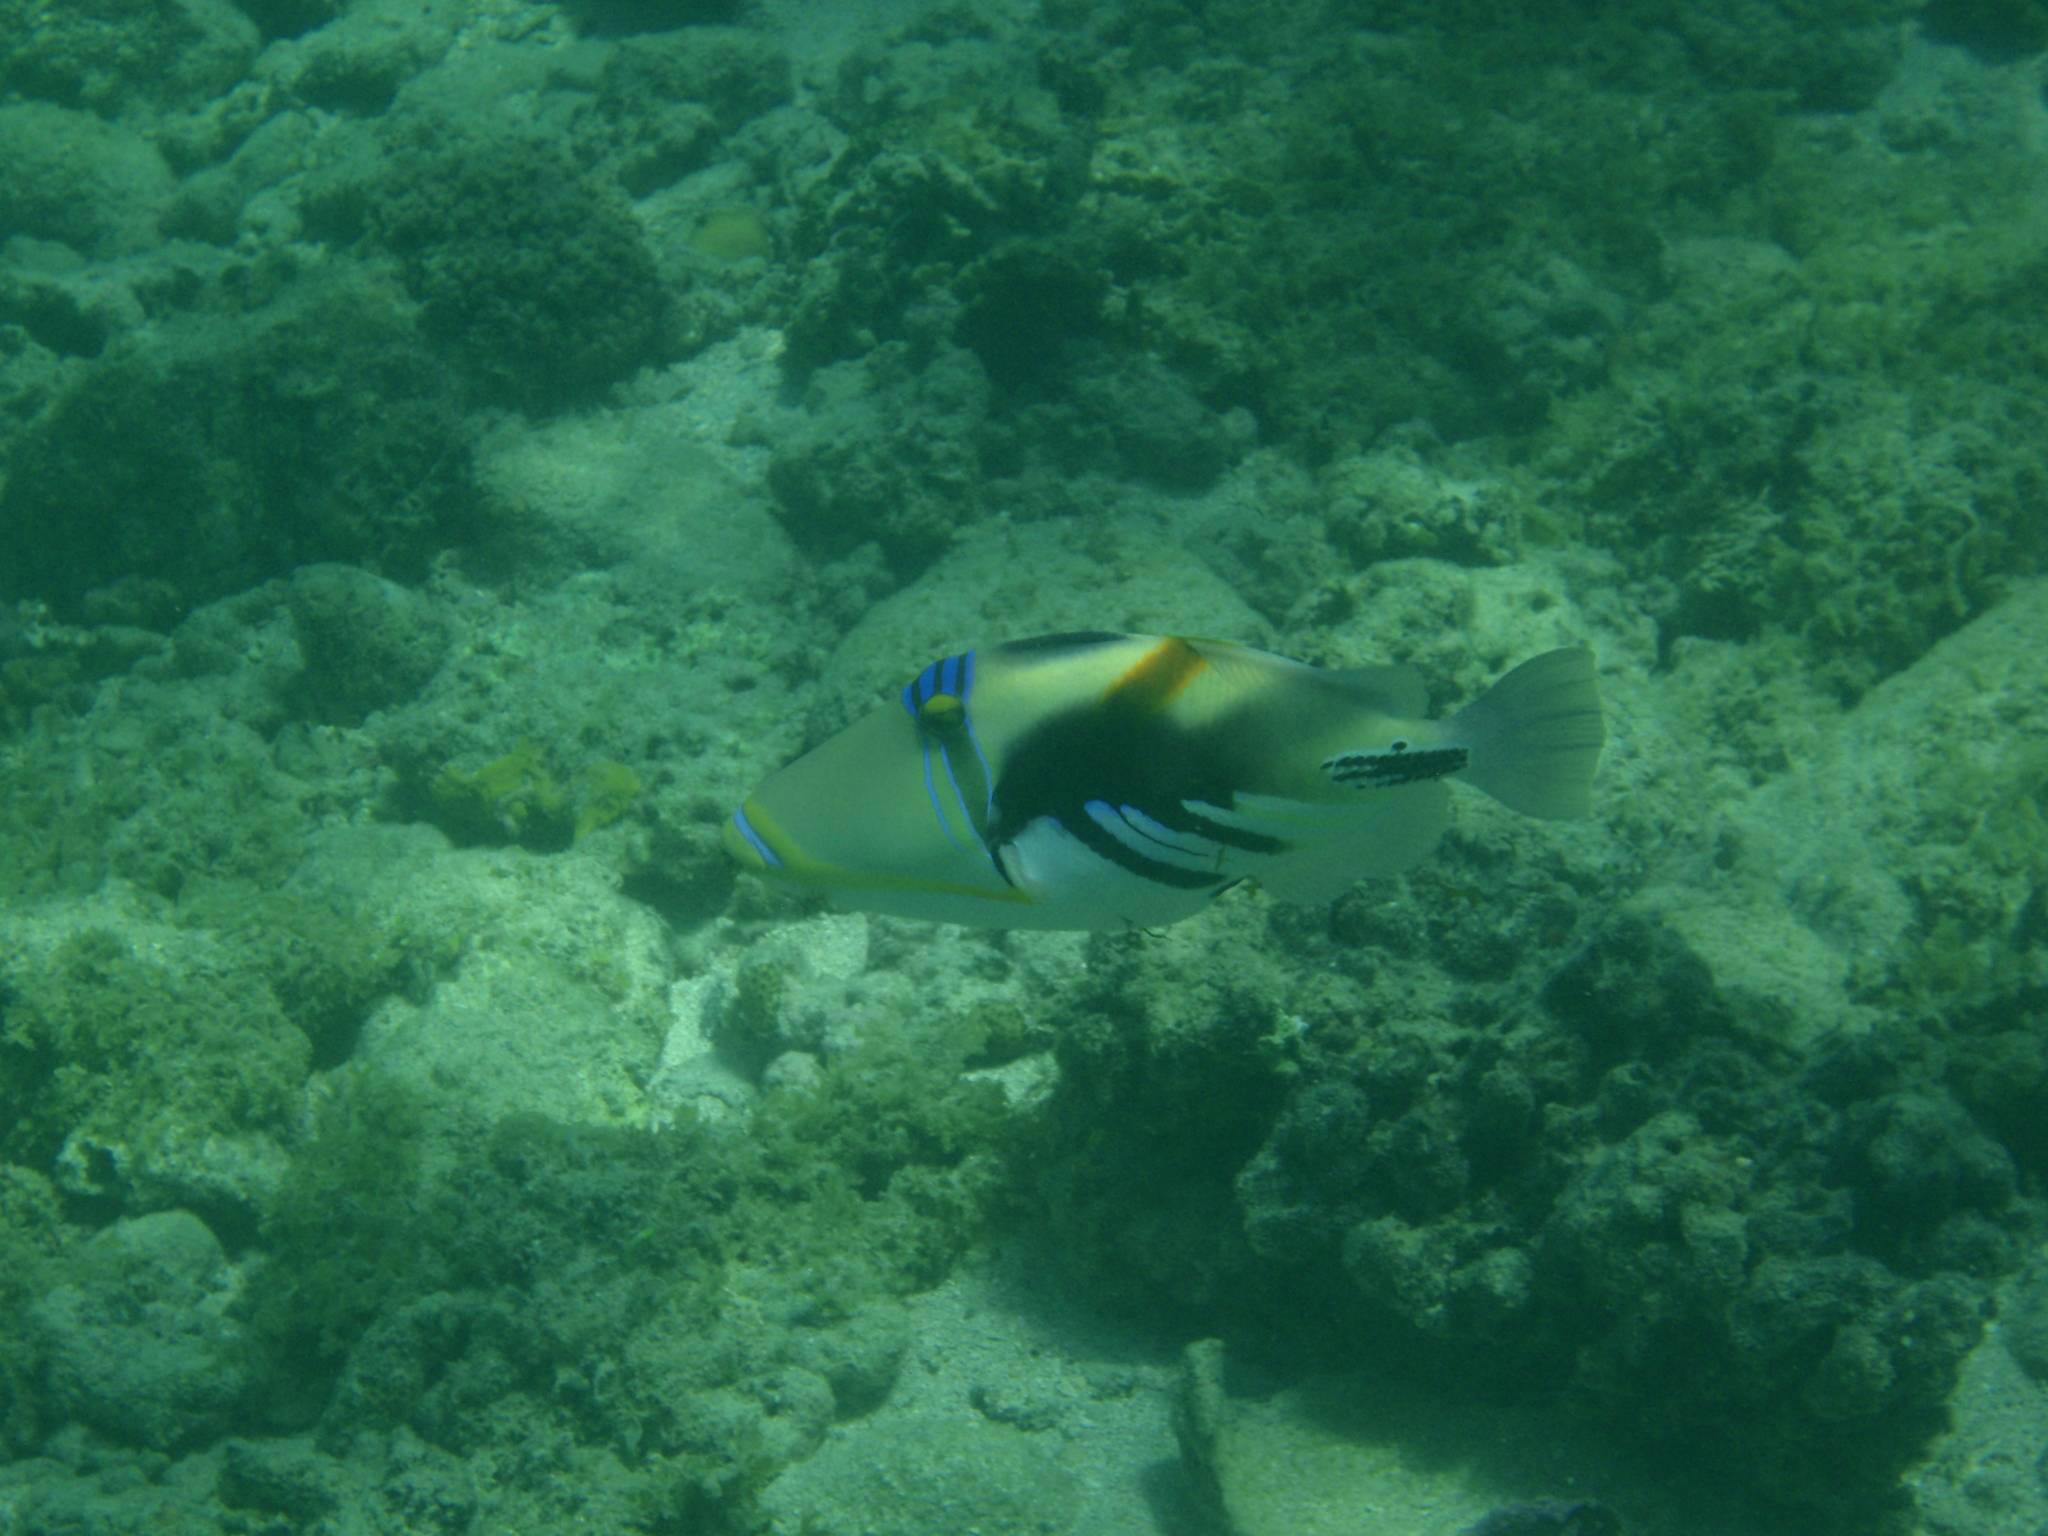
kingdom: Animalia
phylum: Chordata
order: Tetraodontiformes
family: Balistidae
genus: Rhinecanthus
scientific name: Rhinecanthus aculeatus
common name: White-banded triggerfish
